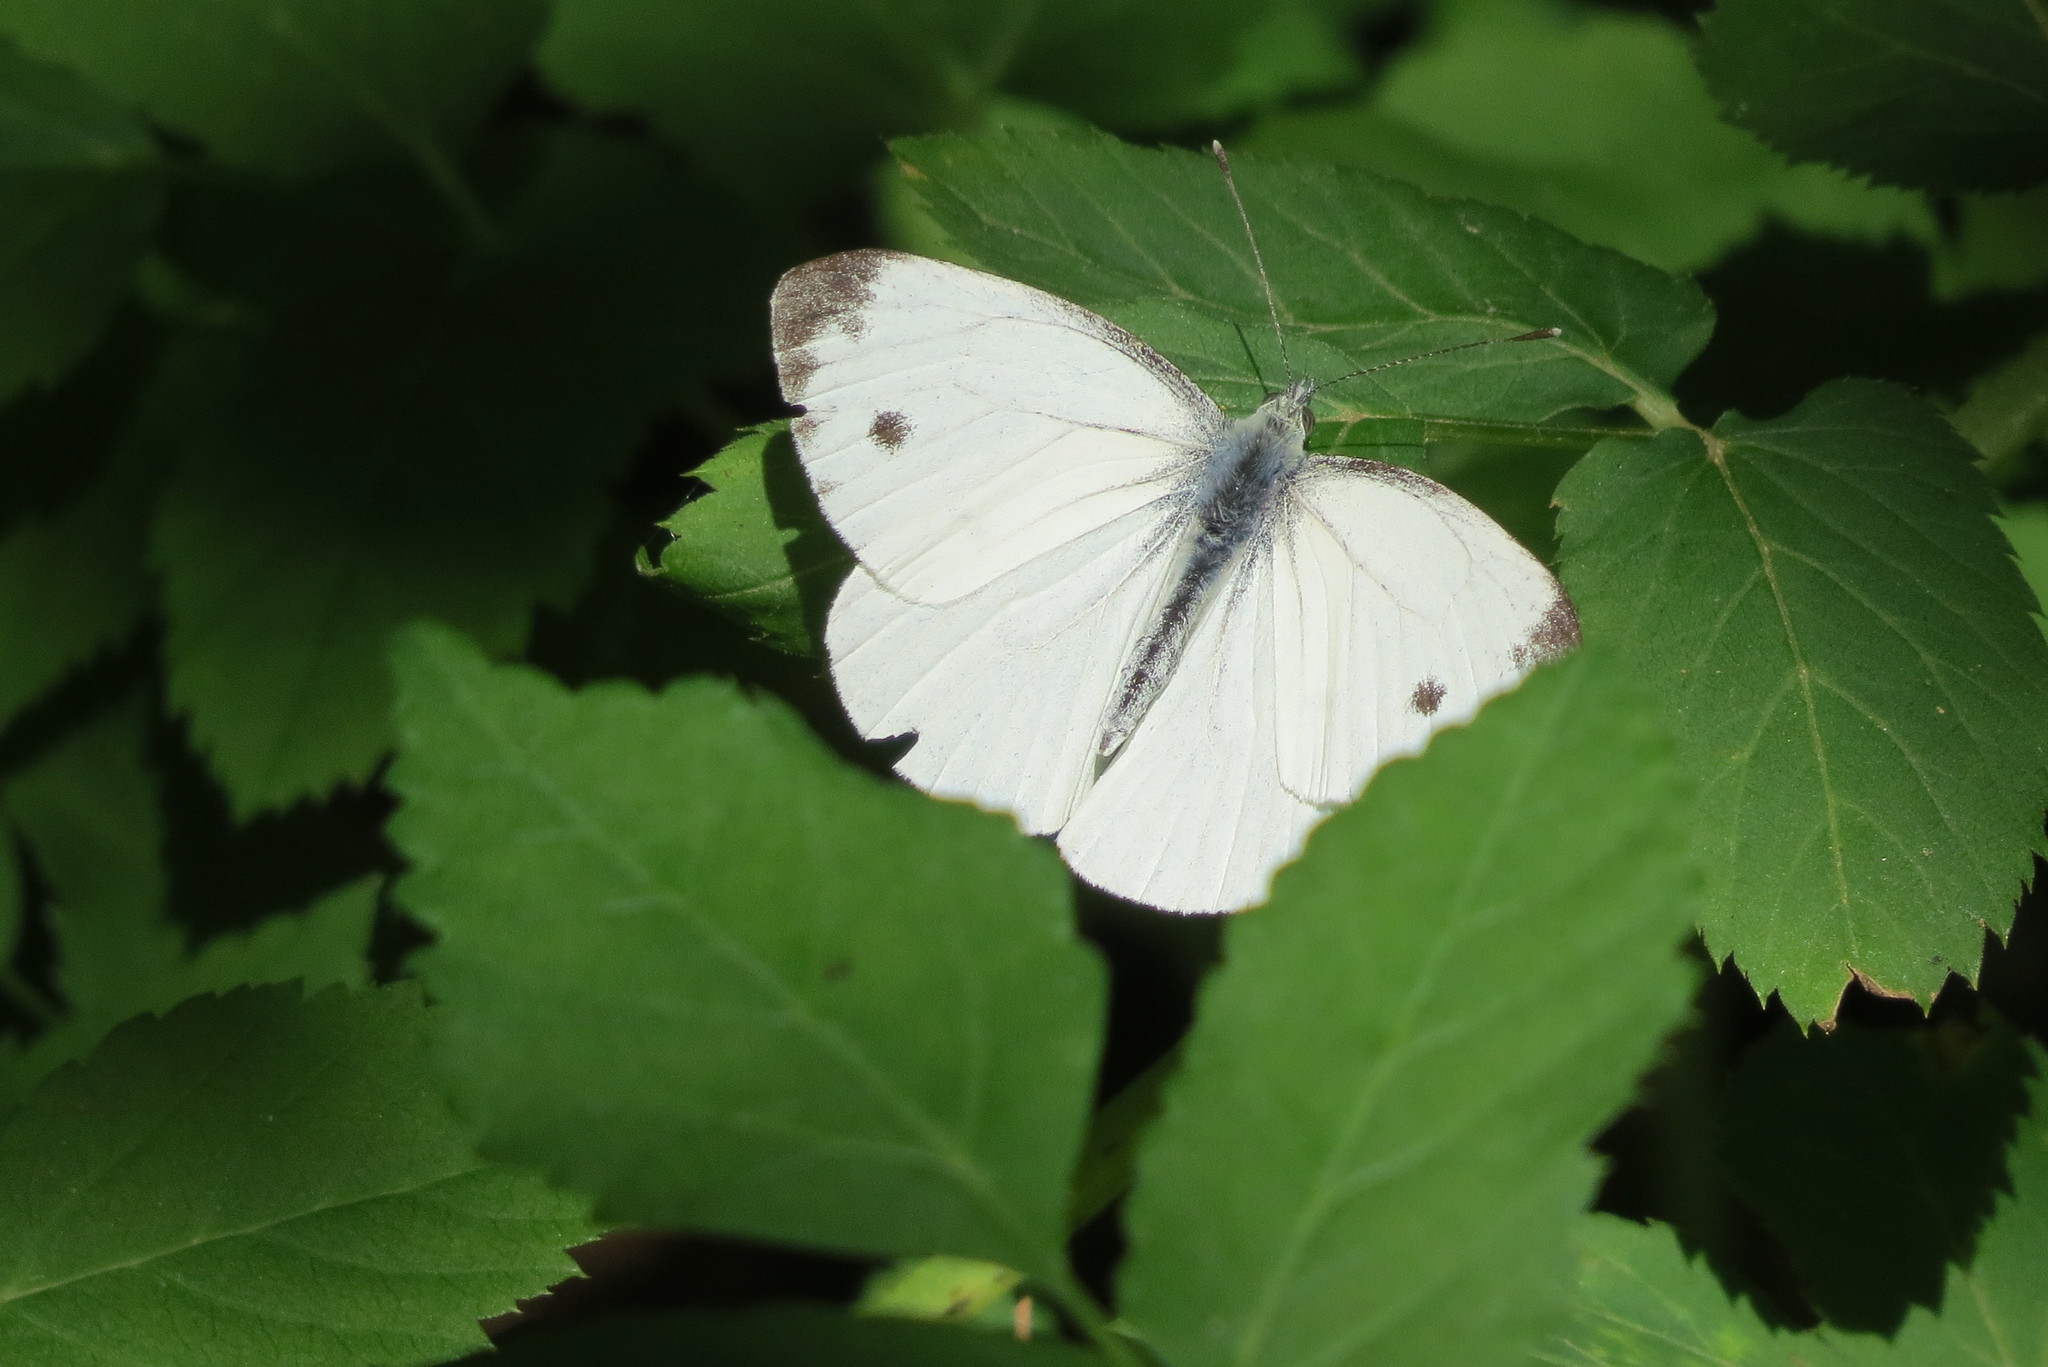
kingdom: Animalia
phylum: Arthropoda
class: Insecta
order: Lepidoptera
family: Pieridae
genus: Pieris
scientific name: Pieris napi
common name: Green-veined white
